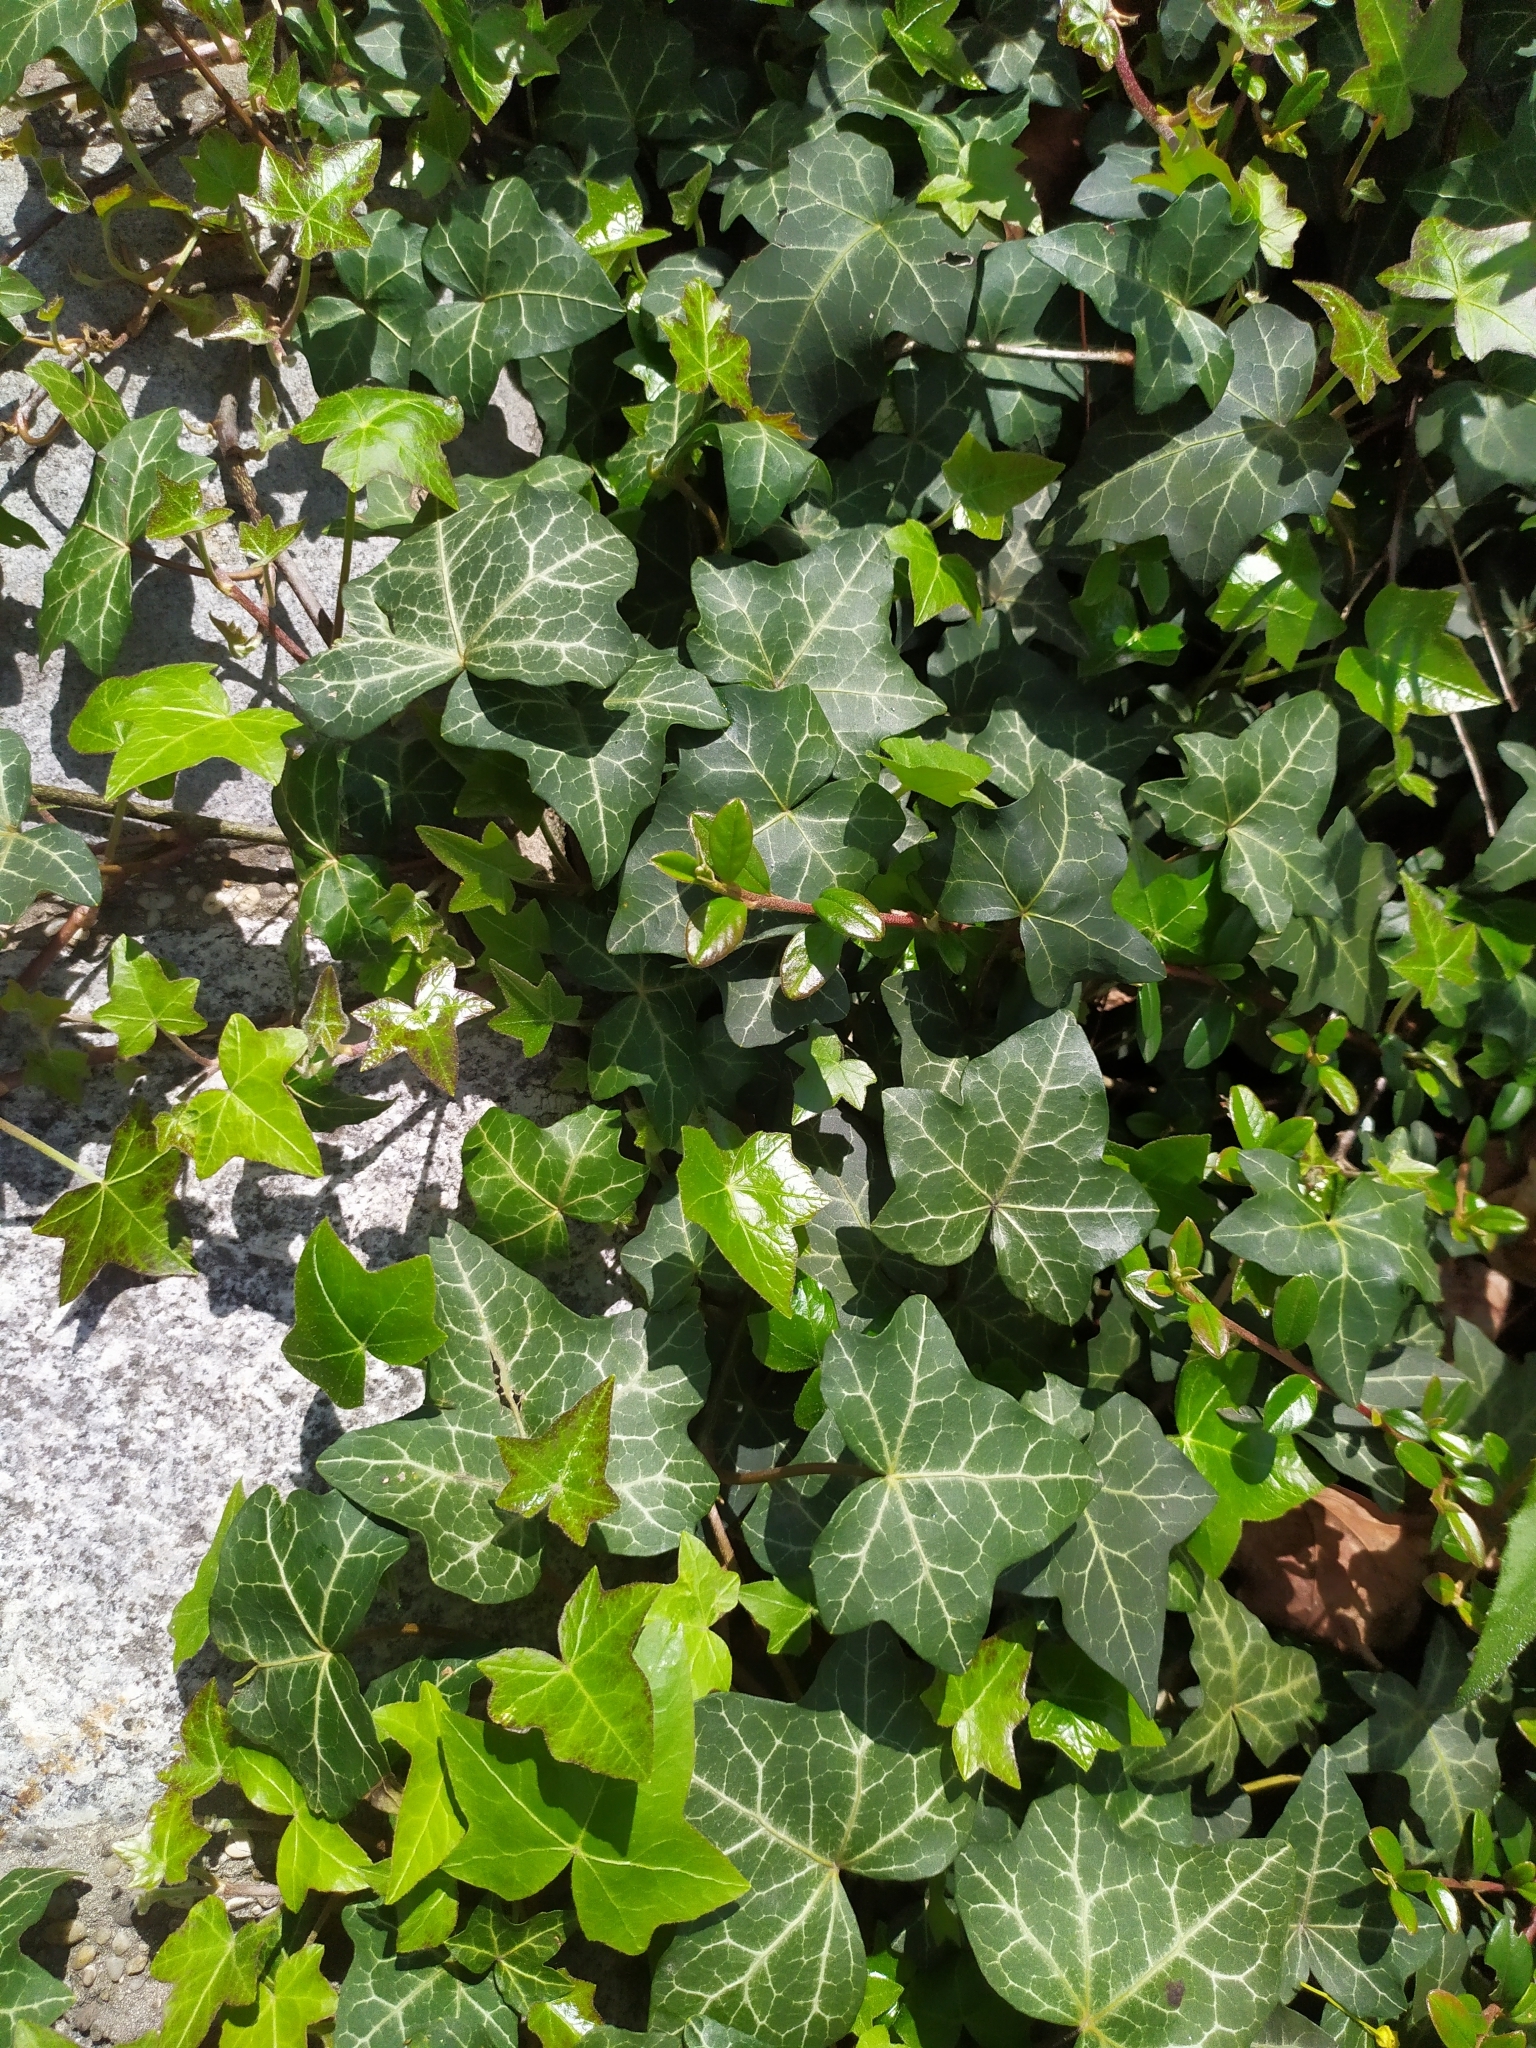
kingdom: Plantae
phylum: Tracheophyta
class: Magnoliopsida
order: Apiales
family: Araliaceae
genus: Hedera
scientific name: Hedera helix
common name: Ivy
